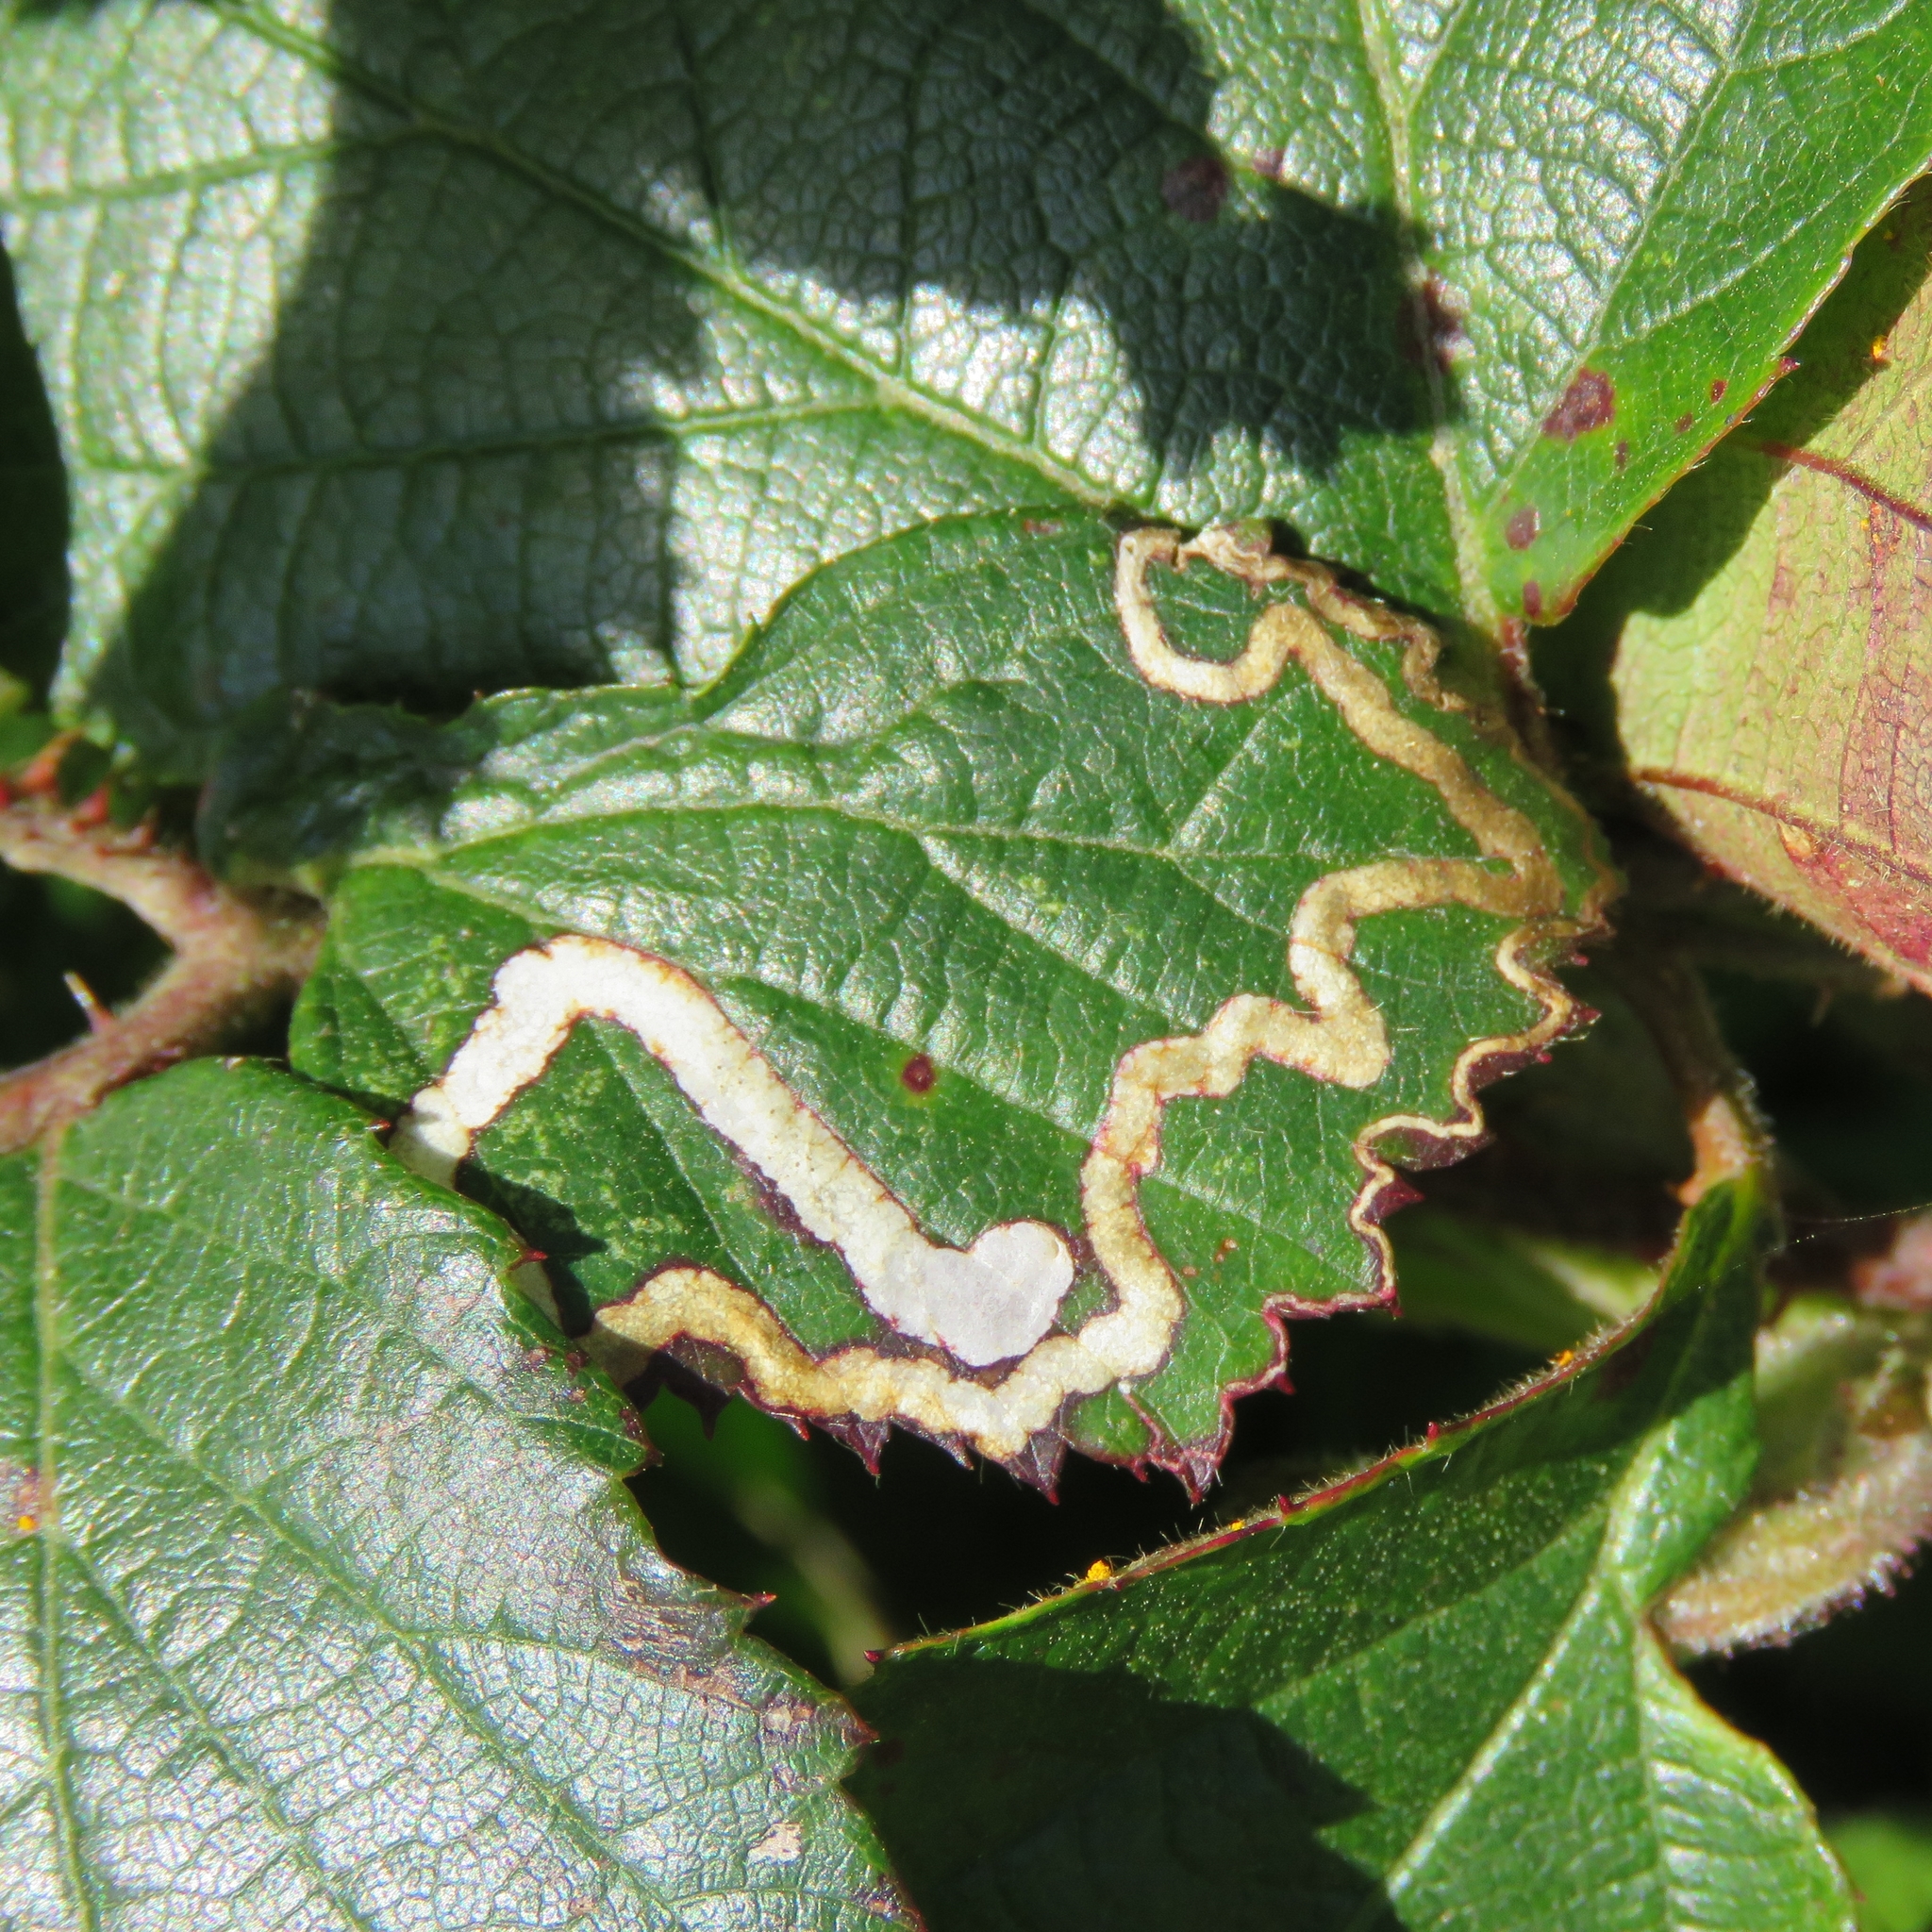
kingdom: Animalia
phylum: Arthropoda
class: Insecta
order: Lepidoptera
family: Nepticulidae
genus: Stigmella
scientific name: Stigmella aurella
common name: Golden pigmy
